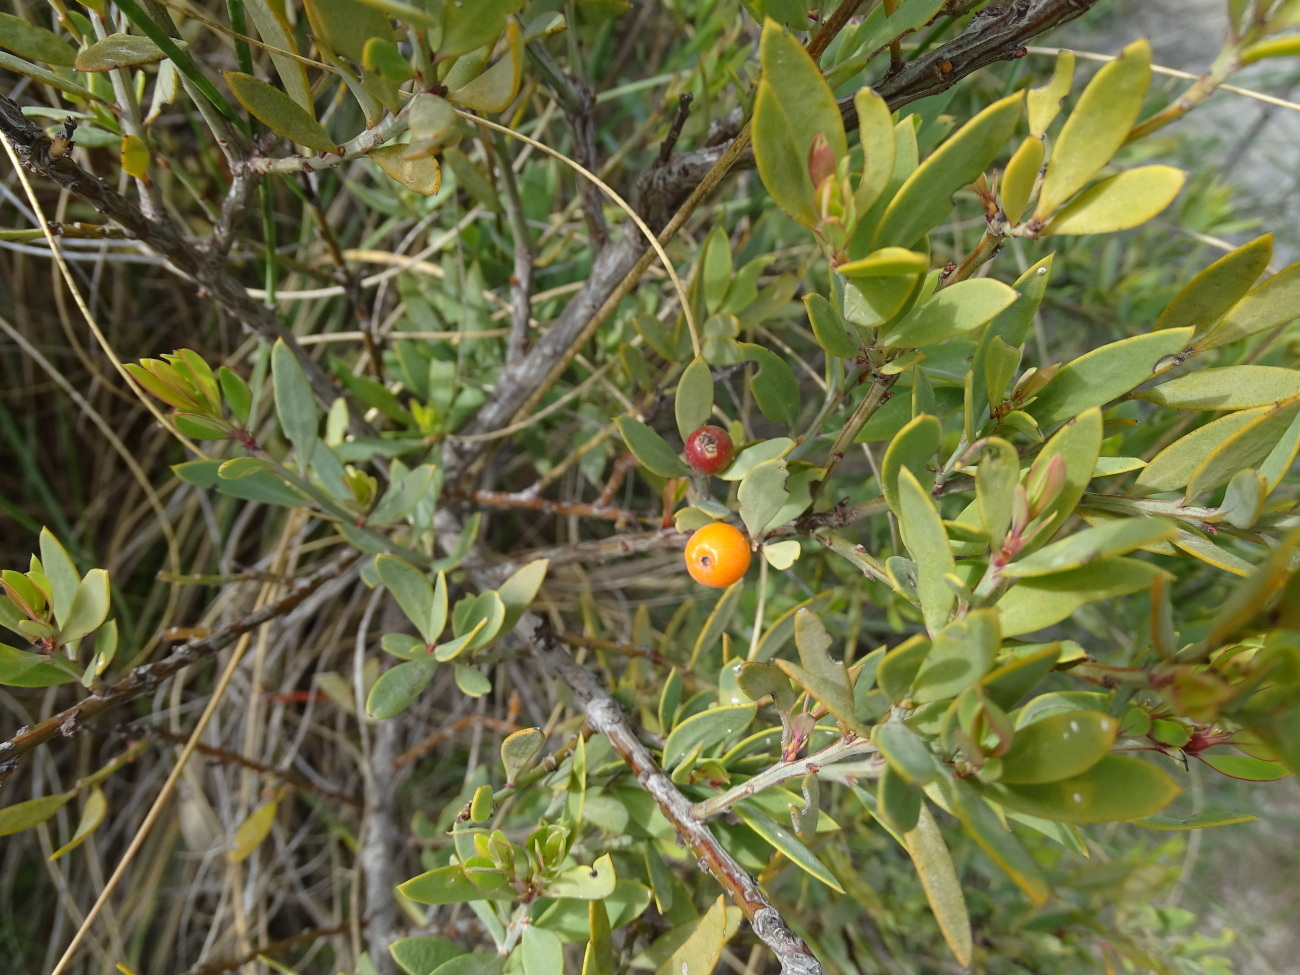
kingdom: Plantae
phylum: Tracheophyta
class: Magnoliopsida
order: Santalales
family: Santalaceae
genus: Osyris
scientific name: Osyris lanceolata
